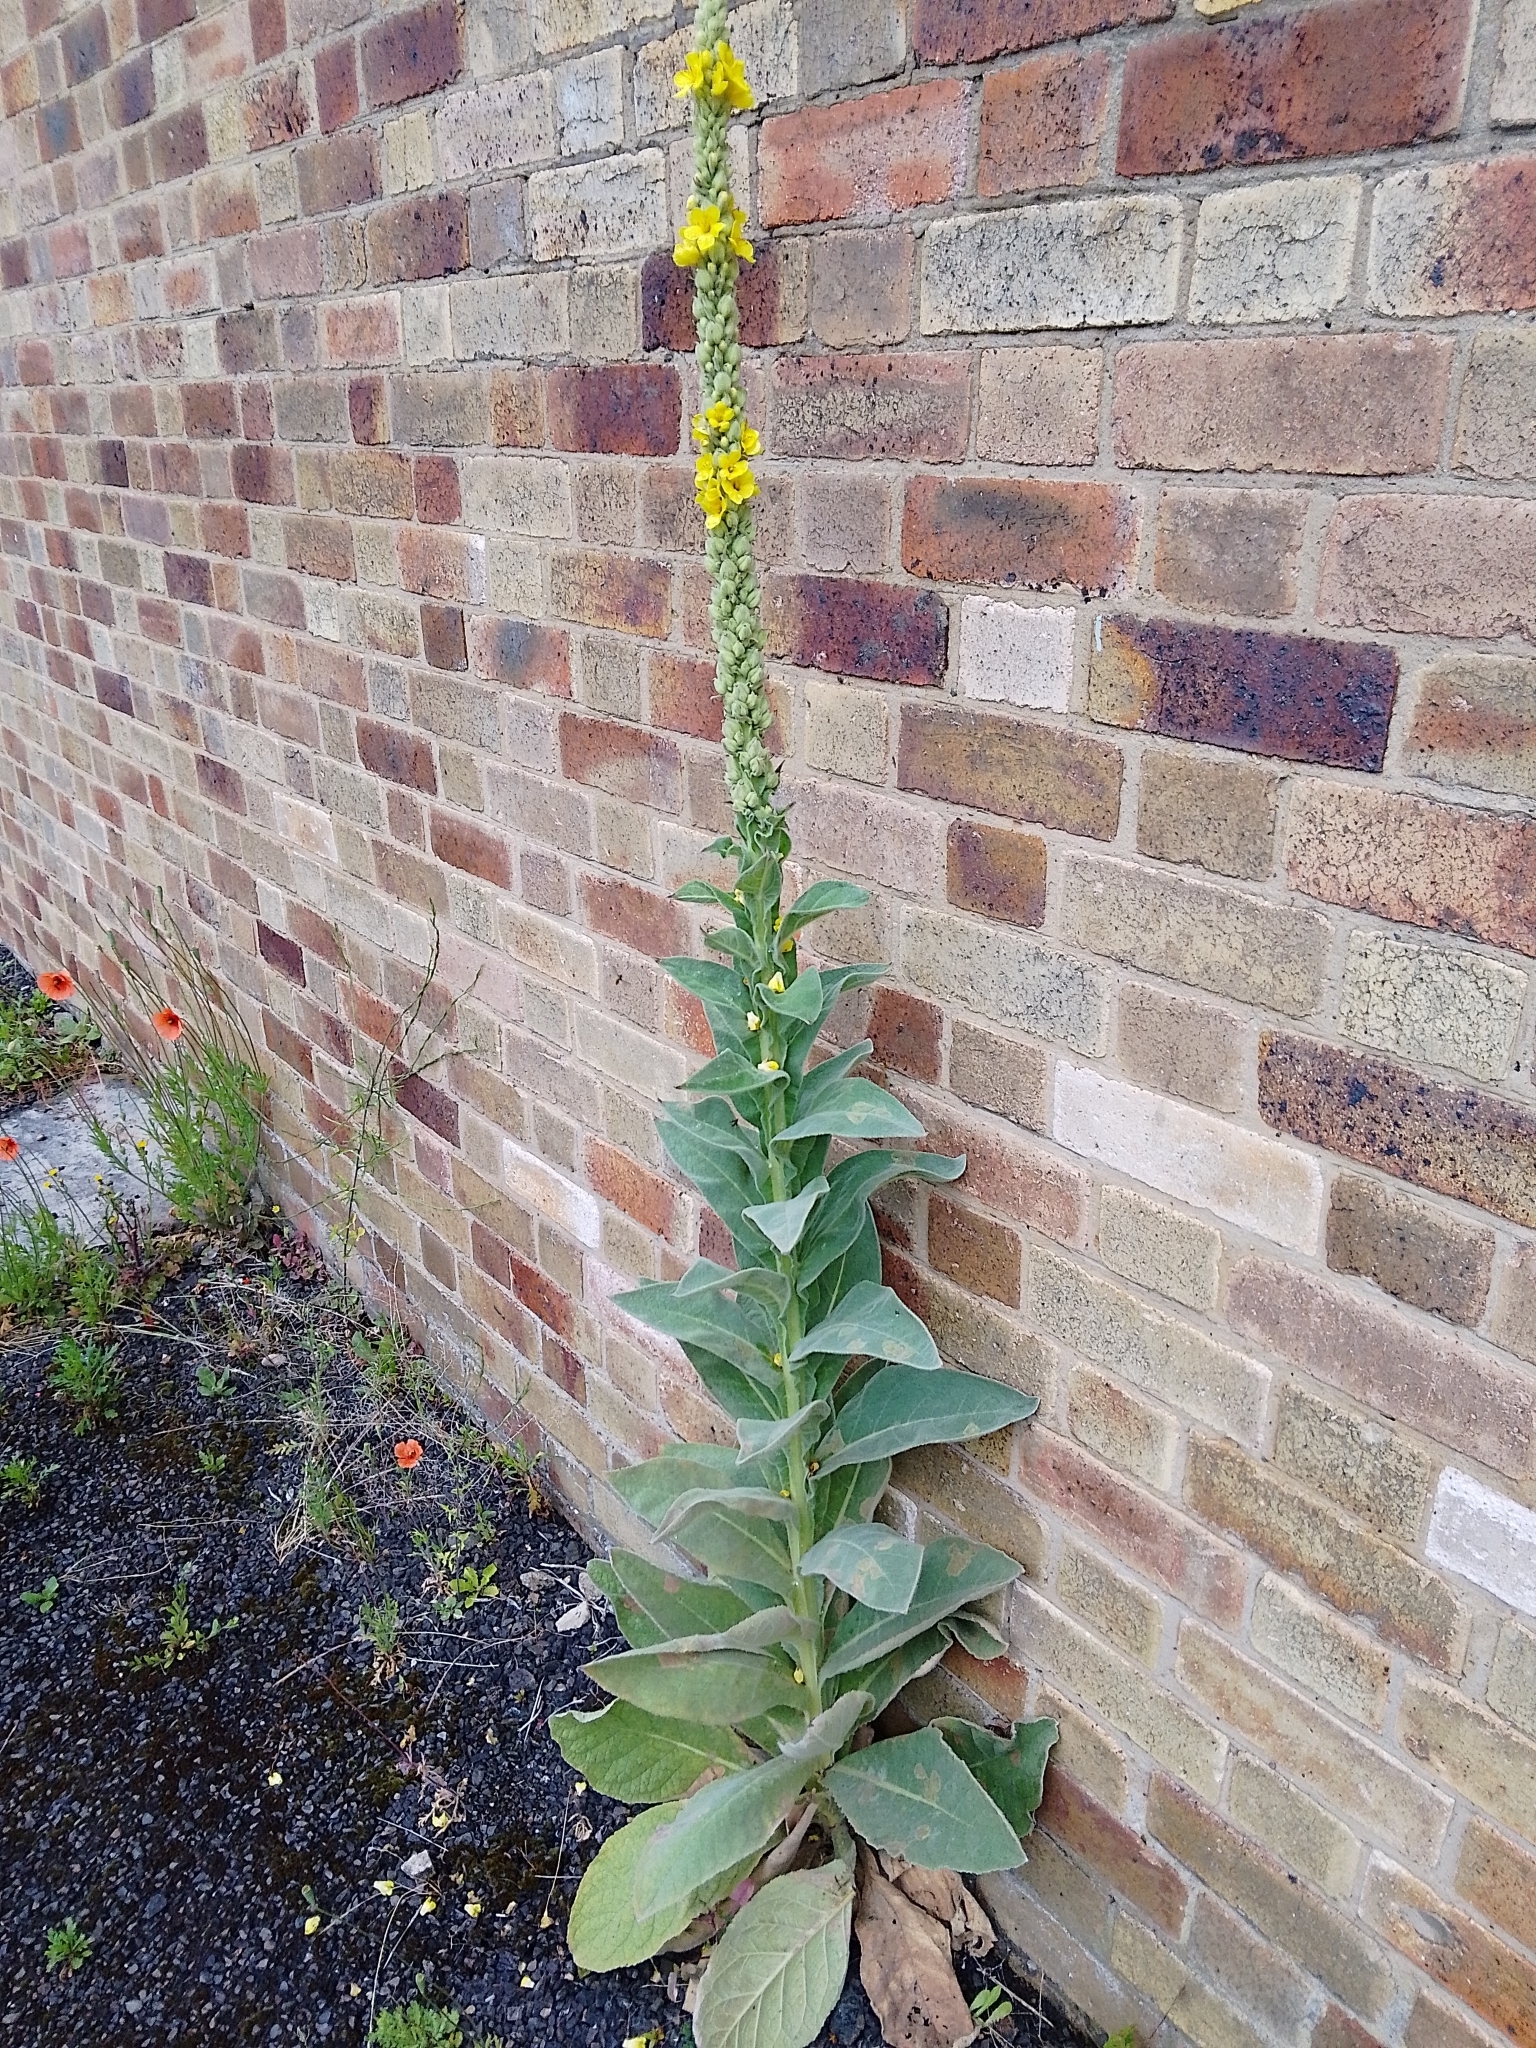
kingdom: Plantae
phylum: Tracheophyta
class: Magnoliopsida
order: Lamiales
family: Scrophulariaceae
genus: Verbascum
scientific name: Verbascum thapsus
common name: Common mullein
